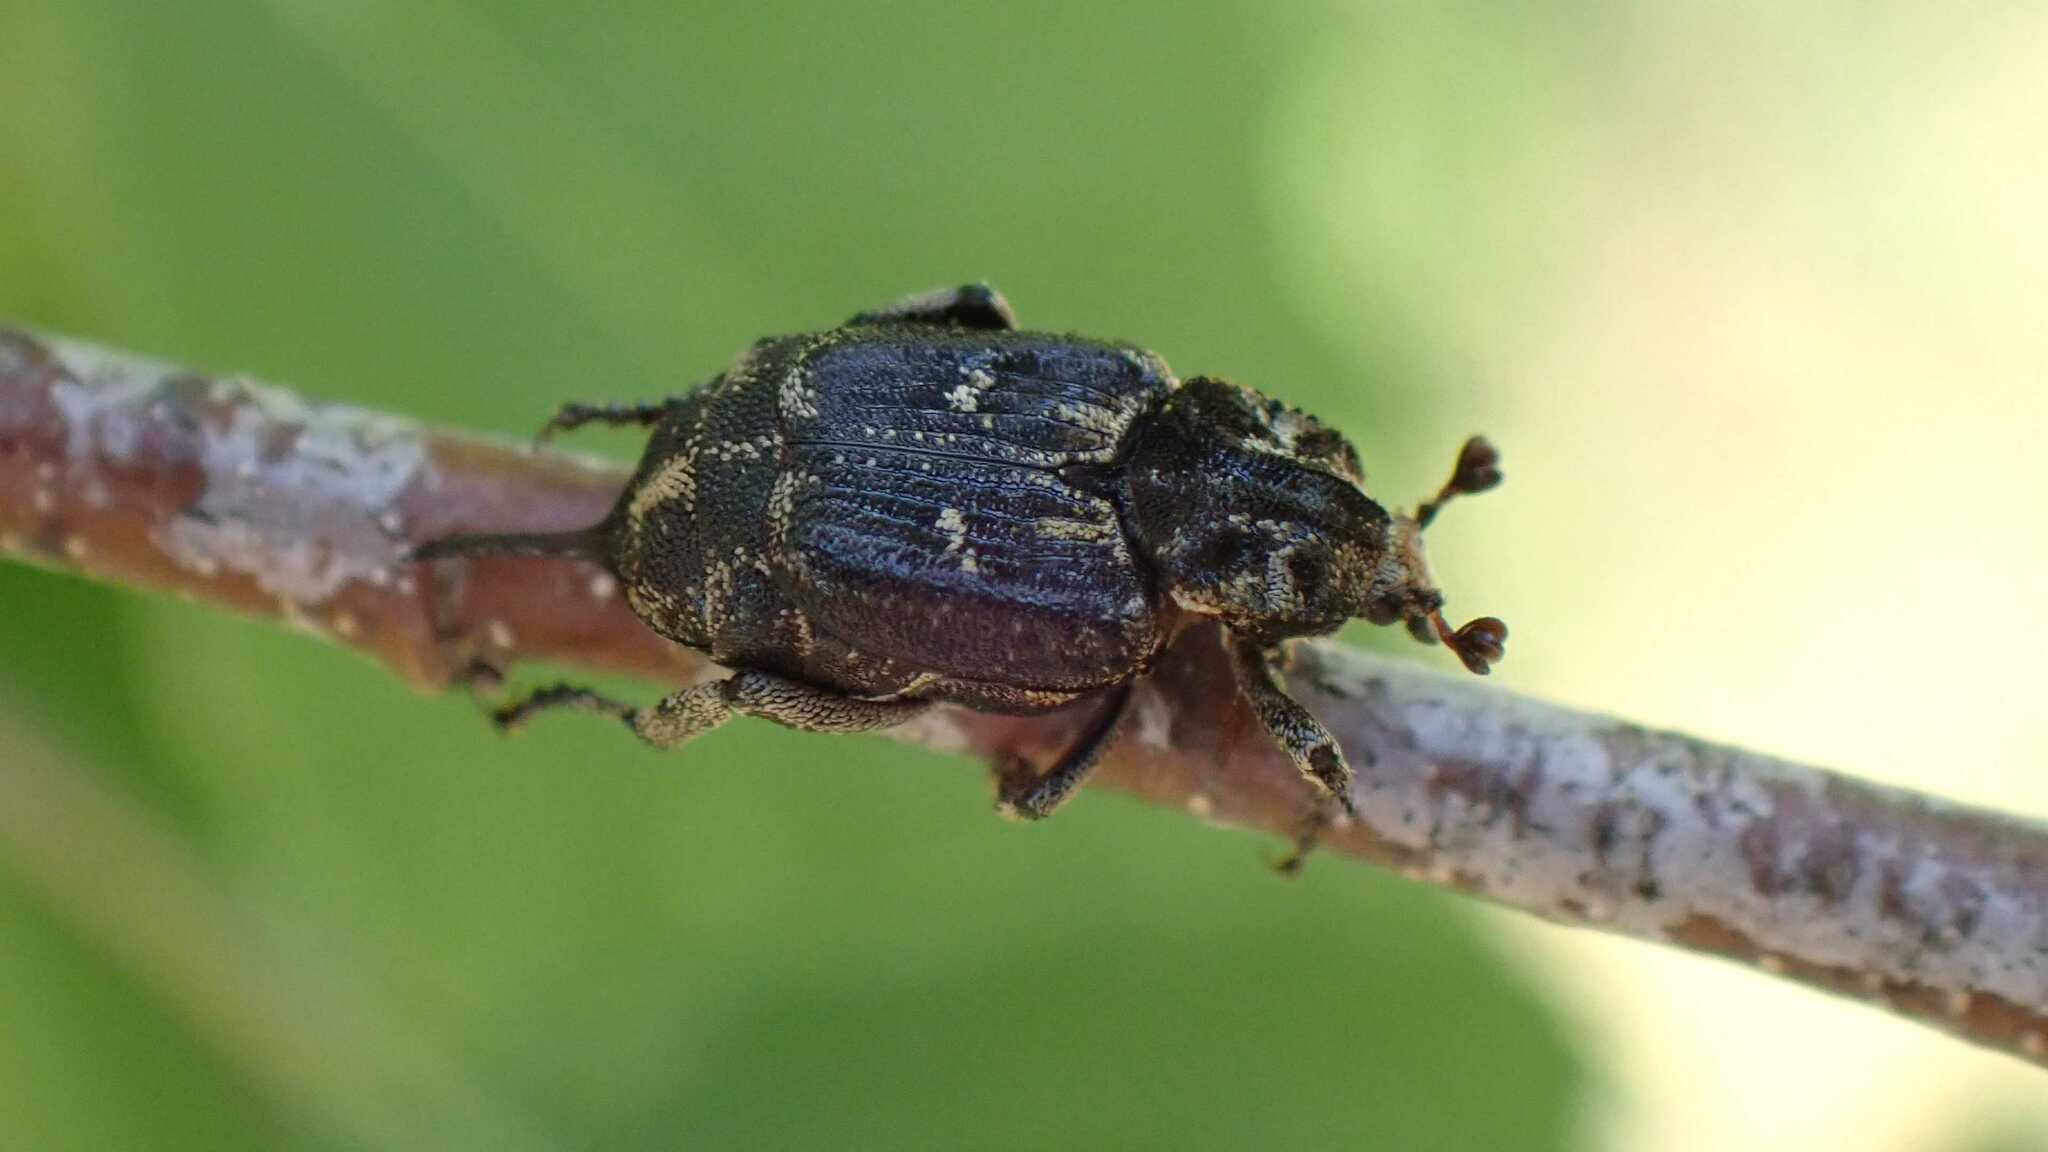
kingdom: Animalia
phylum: Arthropoda
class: Insecta
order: Coleoptera
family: Scarabaeidae
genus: Valgus
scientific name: Valgus hemipterus
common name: Bug flower chafer
